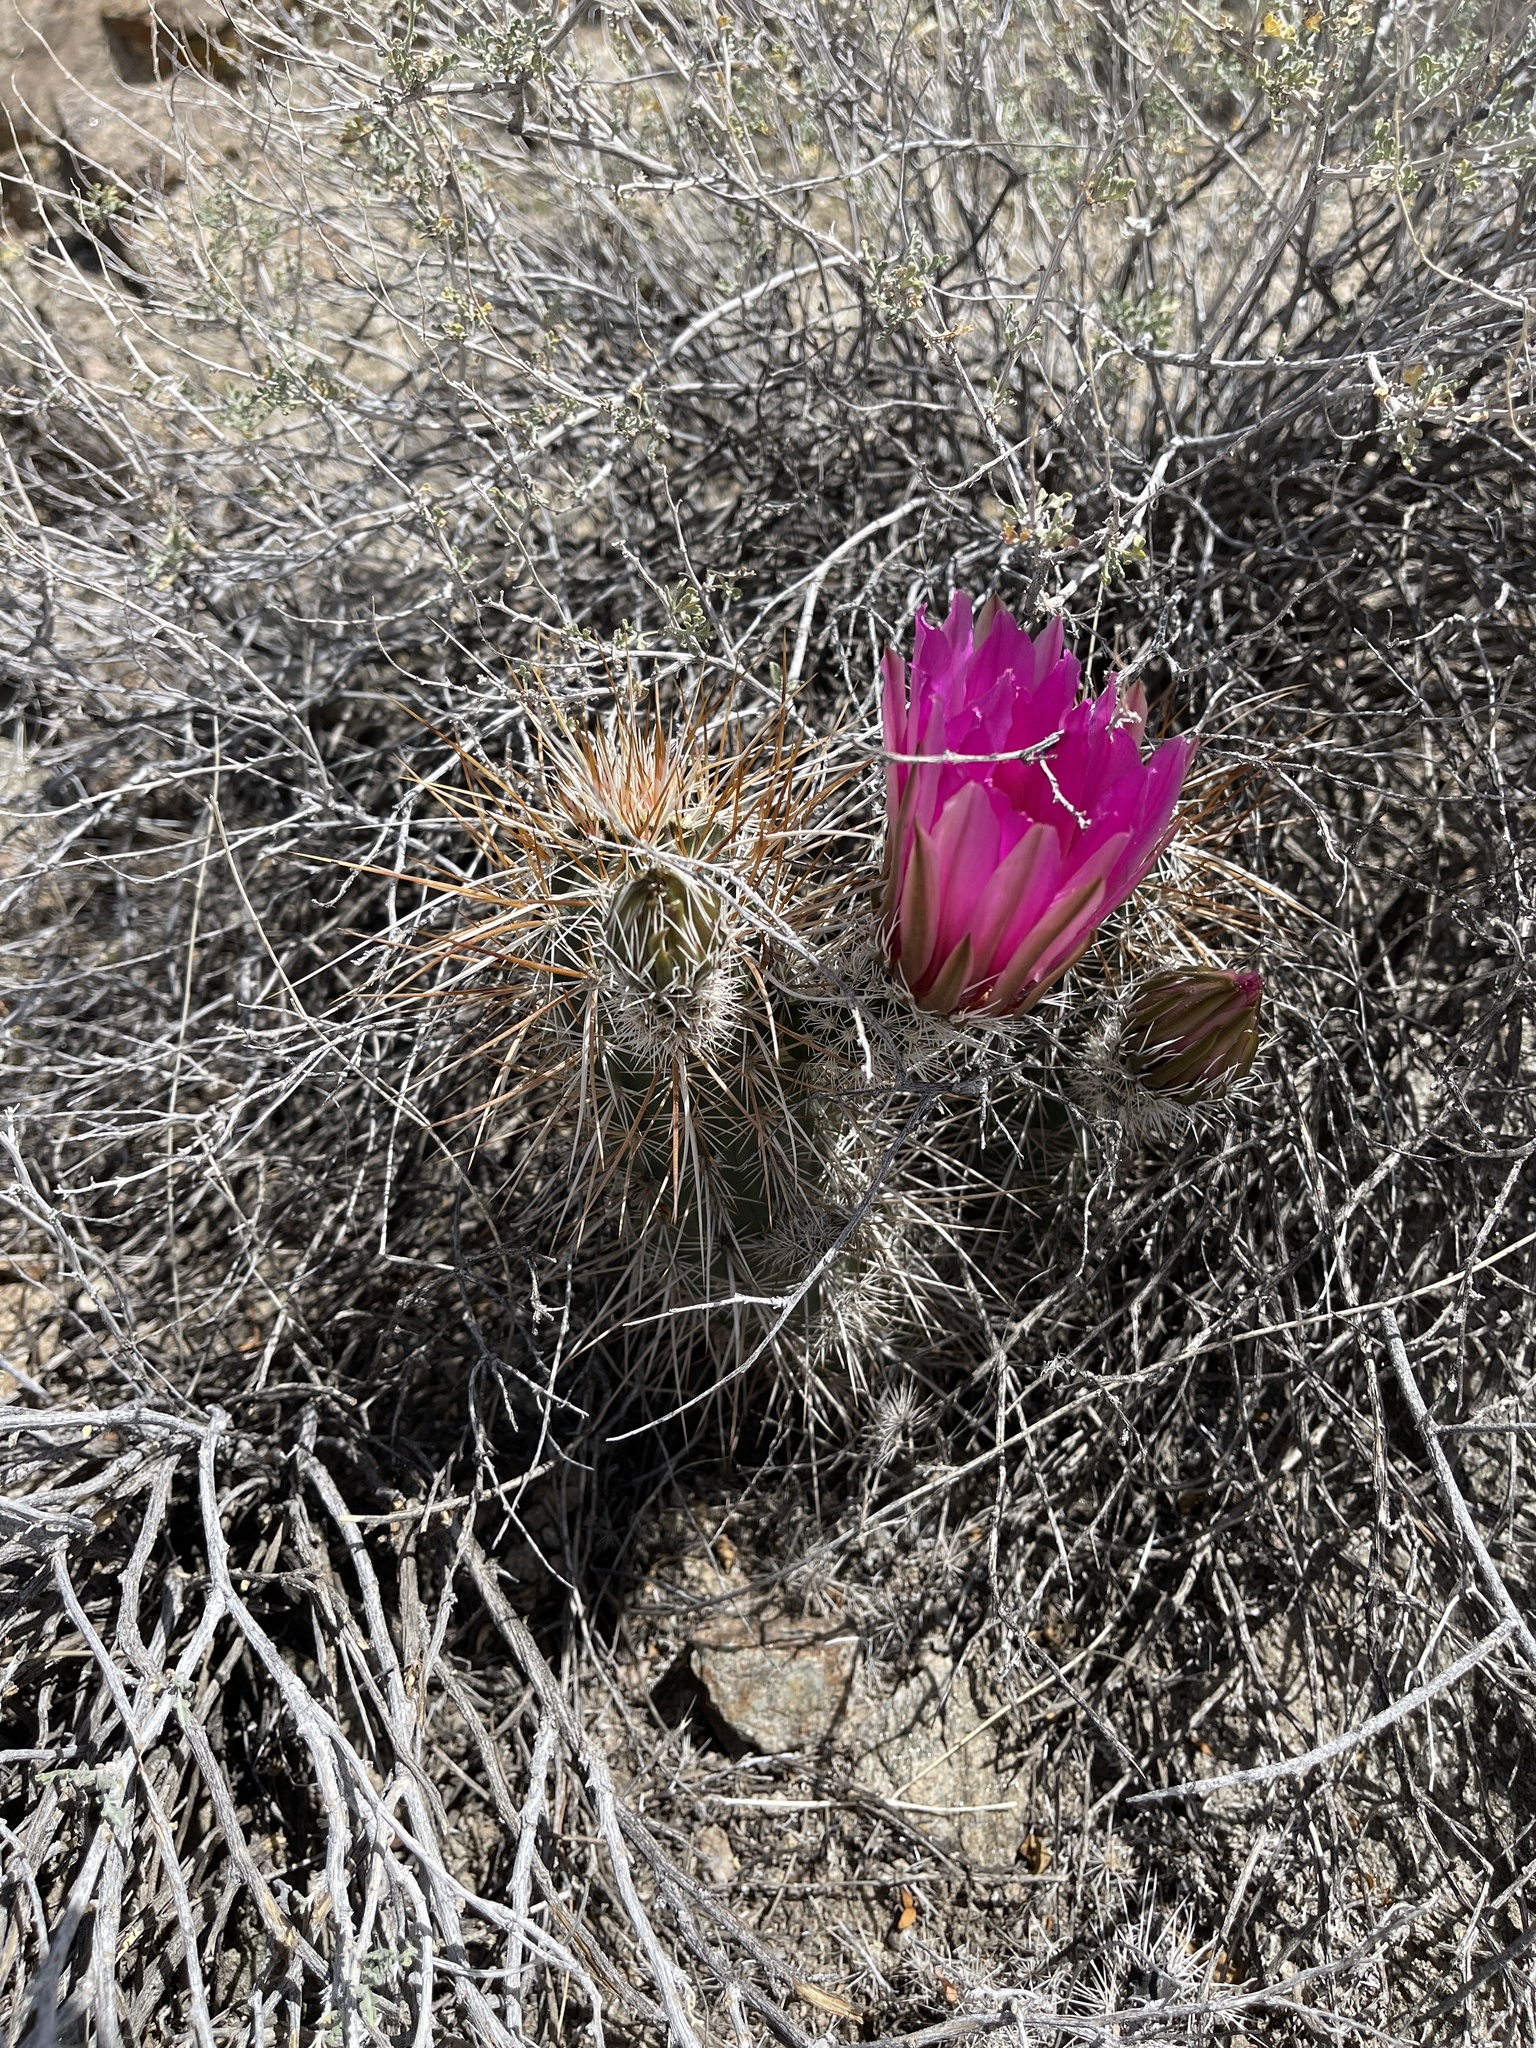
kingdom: Plantae
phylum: Tracheophyta
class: Magnoliopsida
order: Caryophyllales
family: Cactaceae
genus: Echinocereus
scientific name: Echinocereus engelmannii
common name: Engelmann's hedgehog cactus
